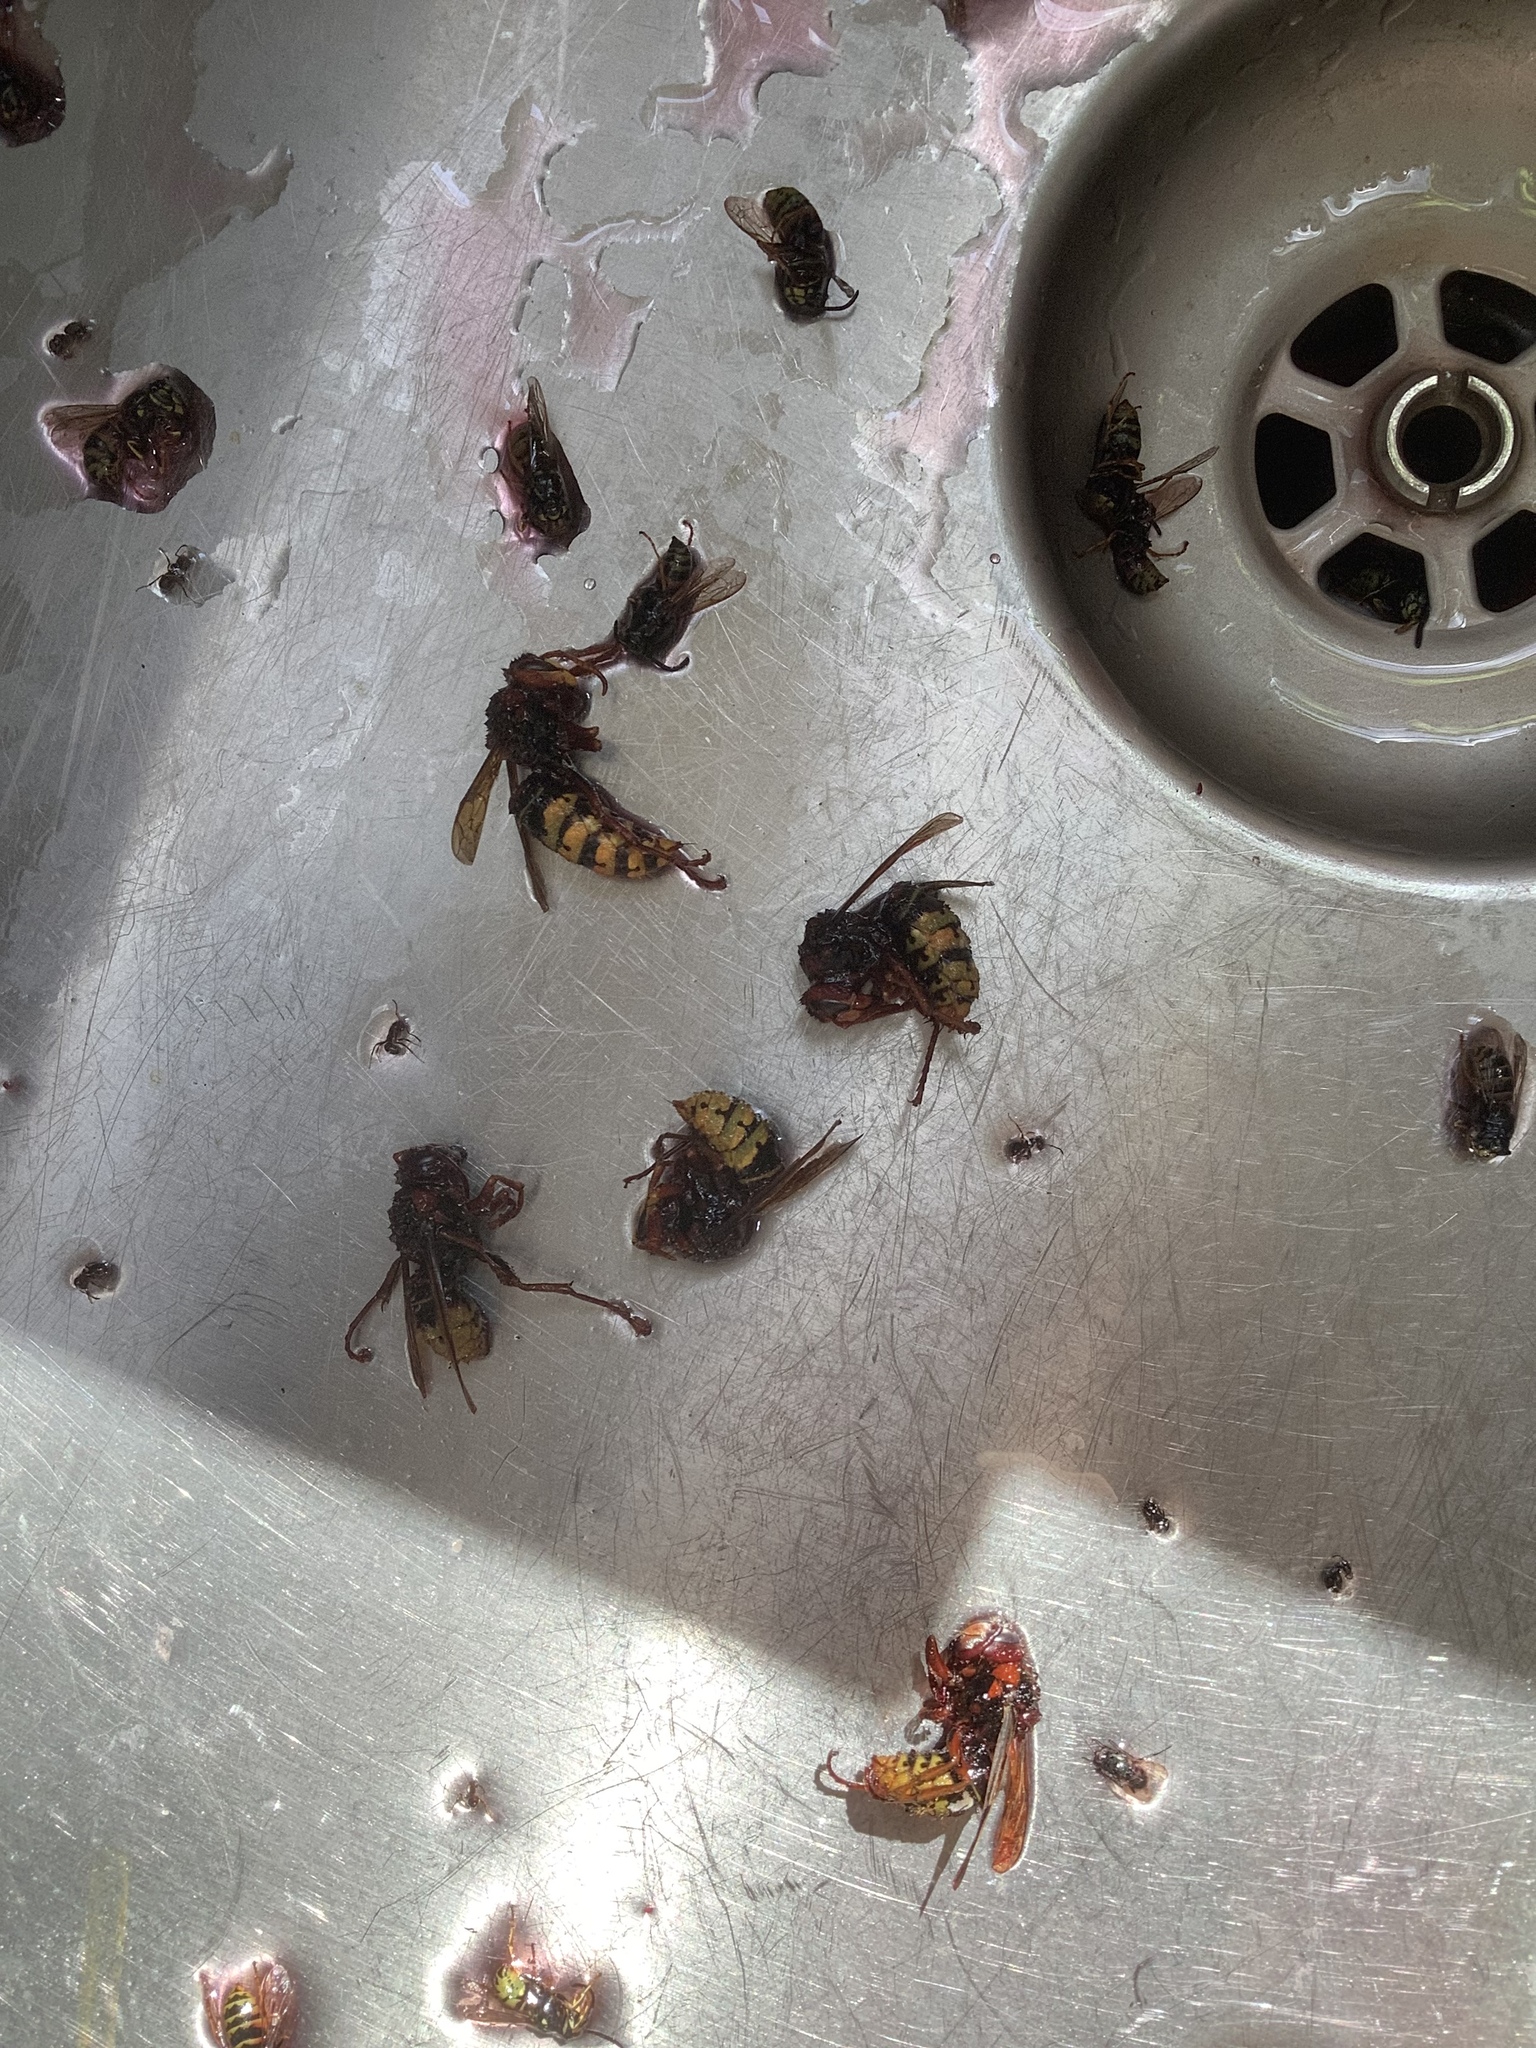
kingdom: Animalia
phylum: Arthropoda
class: Insecta
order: Hymenoptera
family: Vespidae
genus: Vespa
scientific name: Vespa crabro
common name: Hornet
